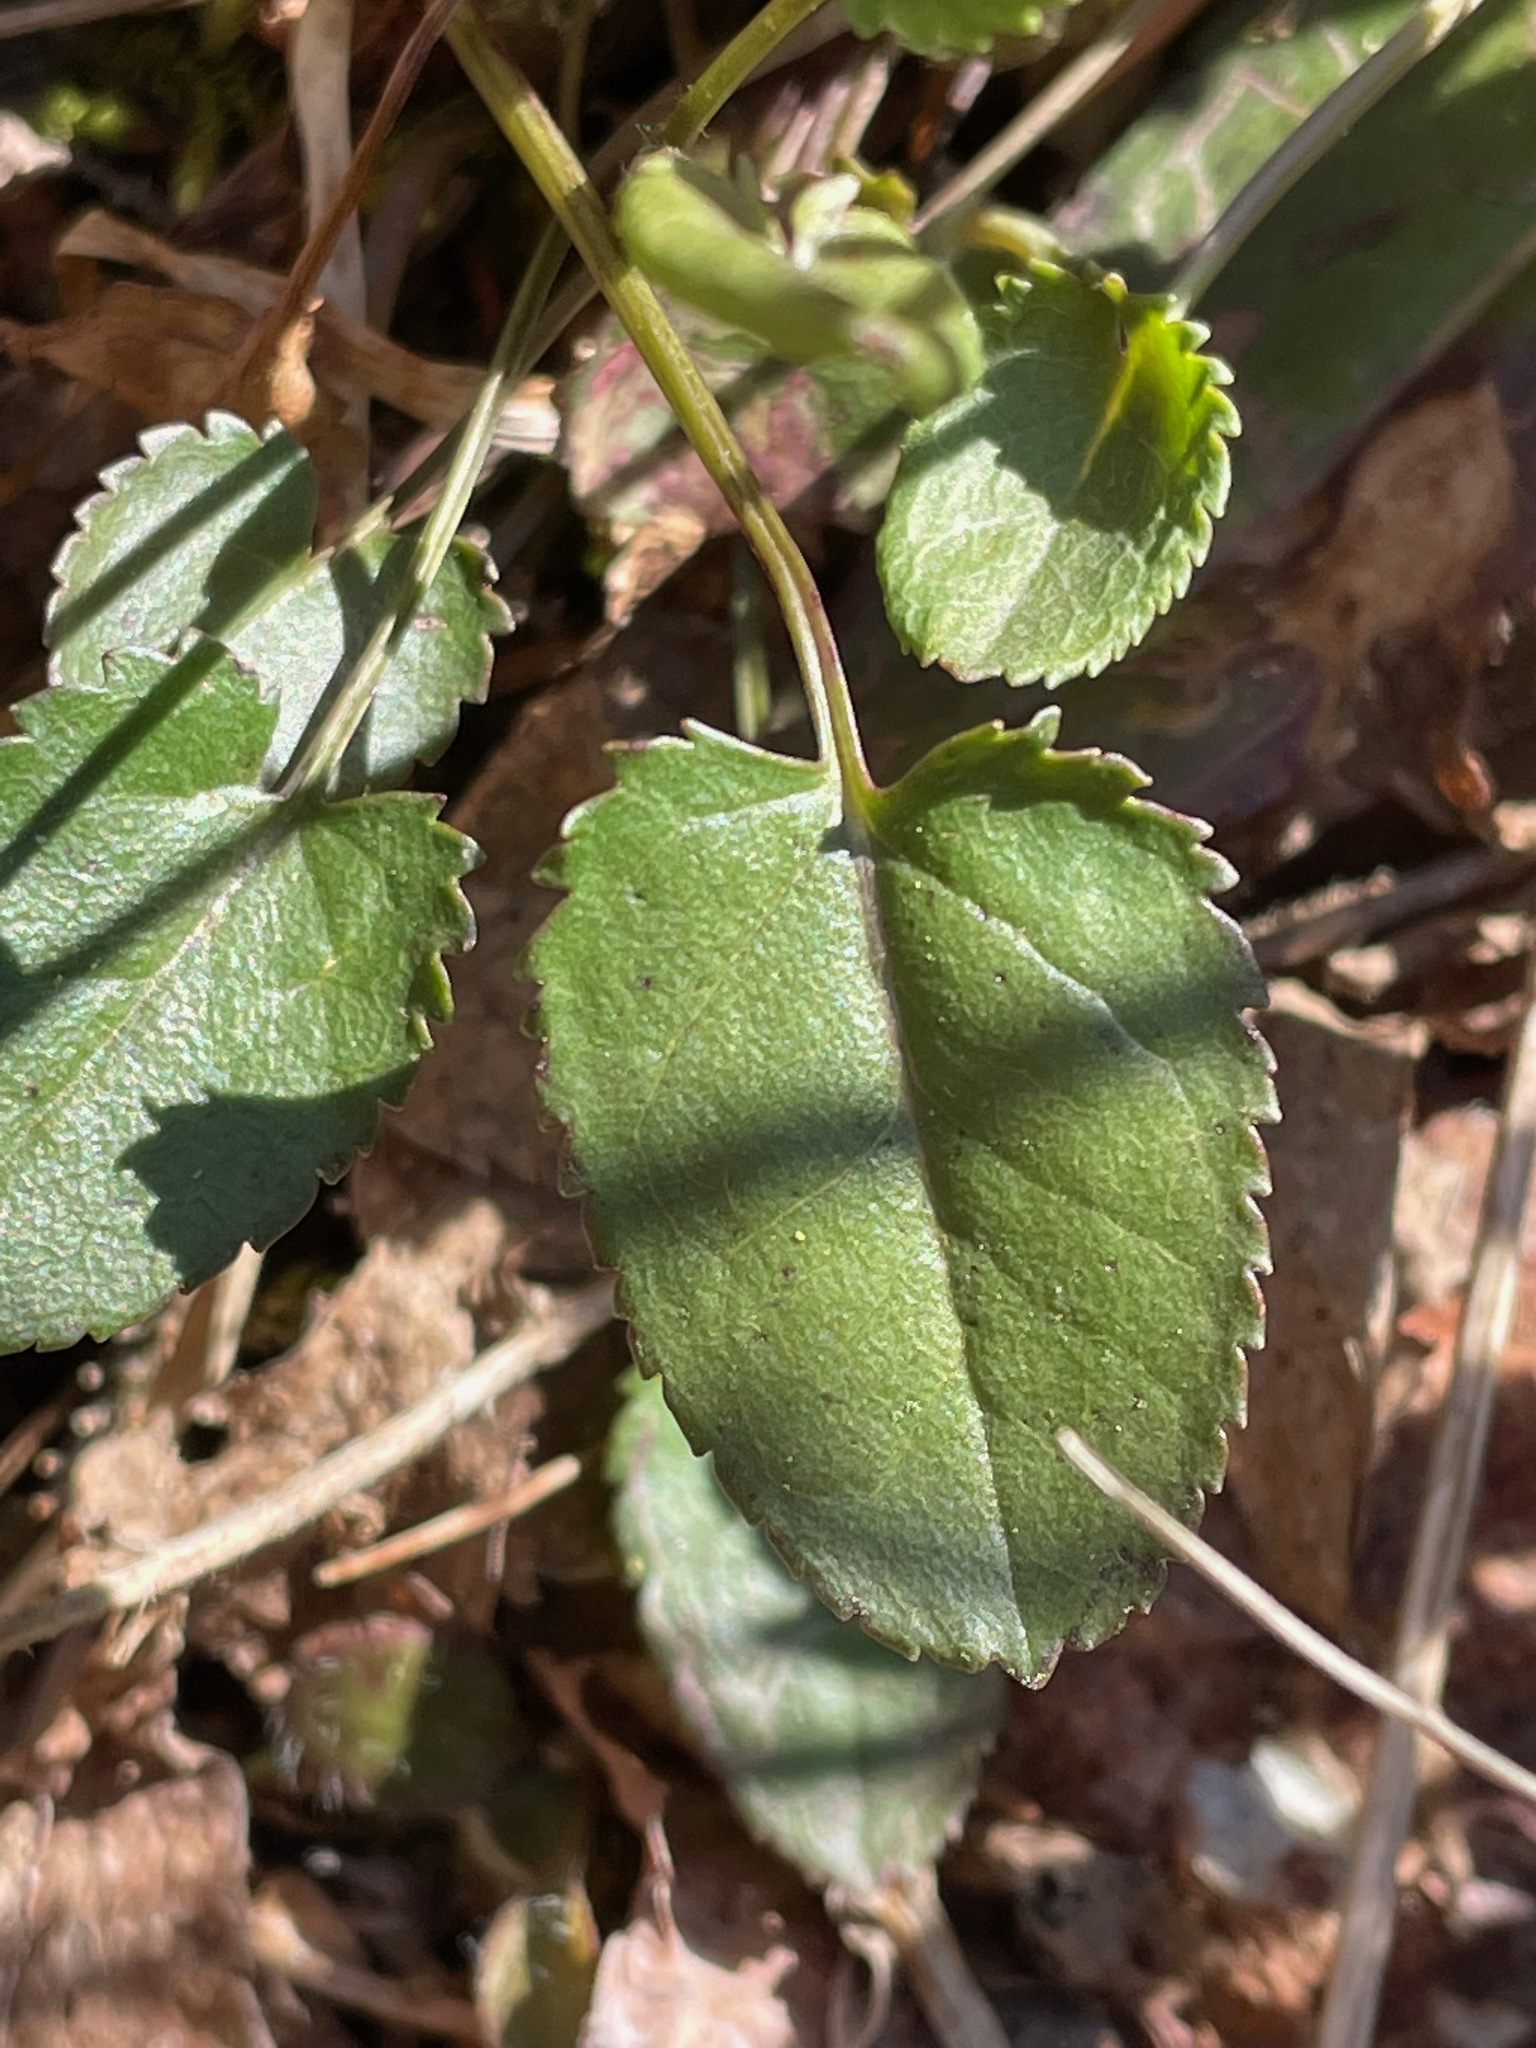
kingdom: Plantae
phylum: Tracheophyta
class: Magnoliopsida
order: Asterales
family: Asteraceae
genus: Packera
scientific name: Packera aurea
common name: Golden groundsel
